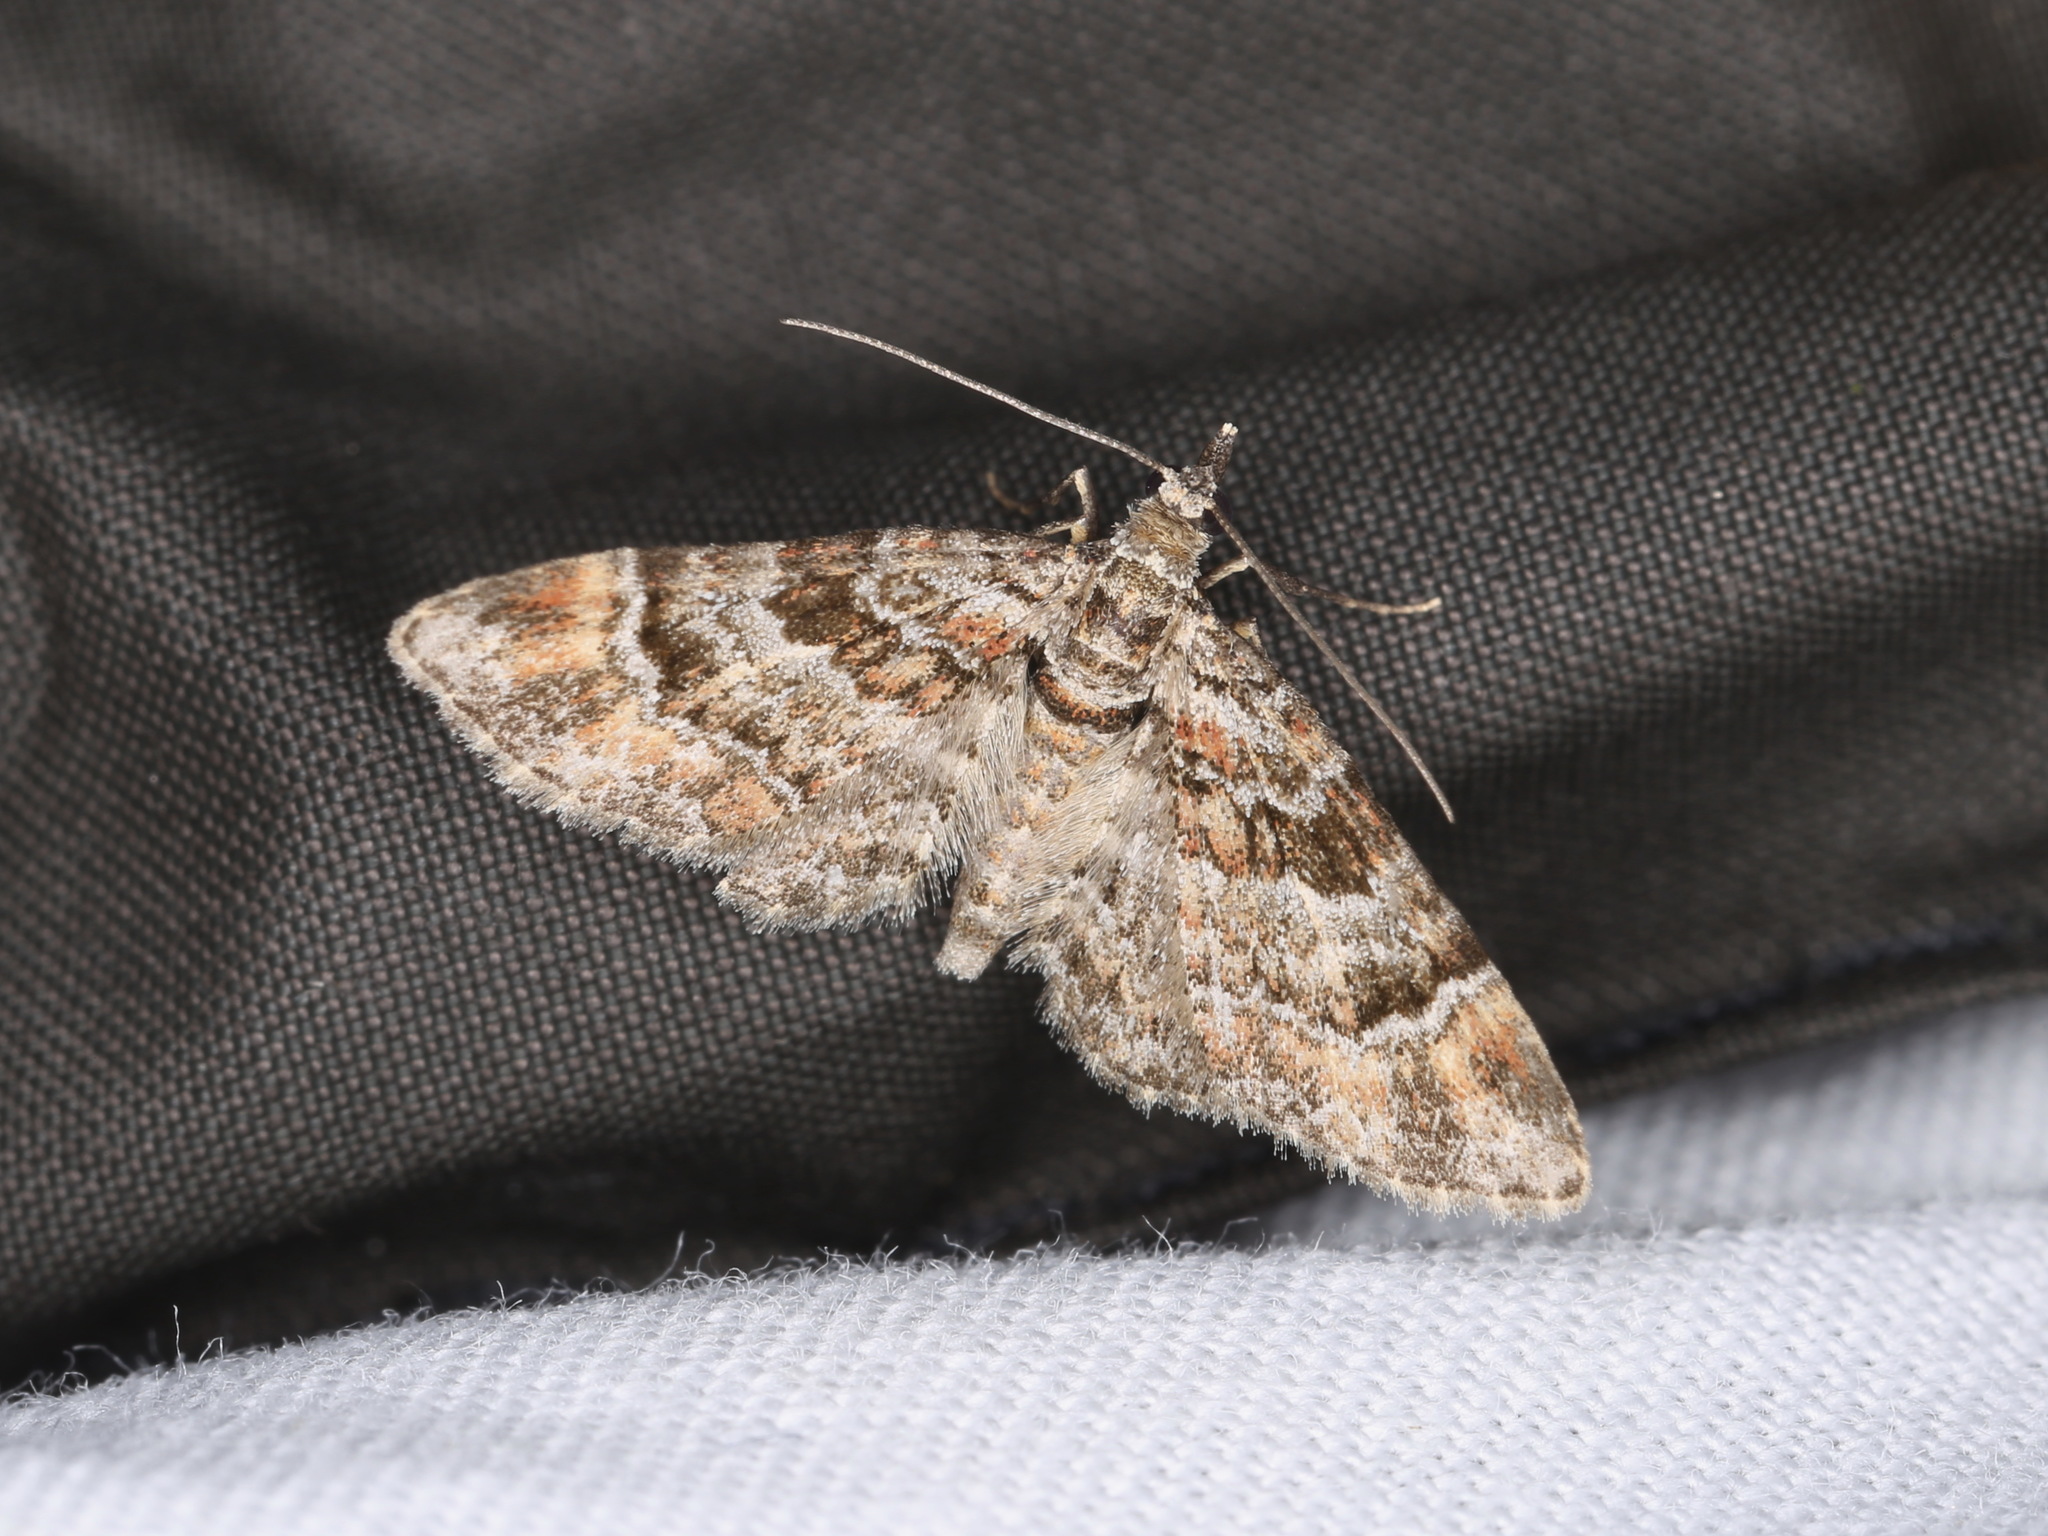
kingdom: Animalia
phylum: Arthropoda
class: Insecta
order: Lepidoptera
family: Geometridae
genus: Gymnoscelis
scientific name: Gymnoscelis rufifasciata
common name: Double-striped pug
